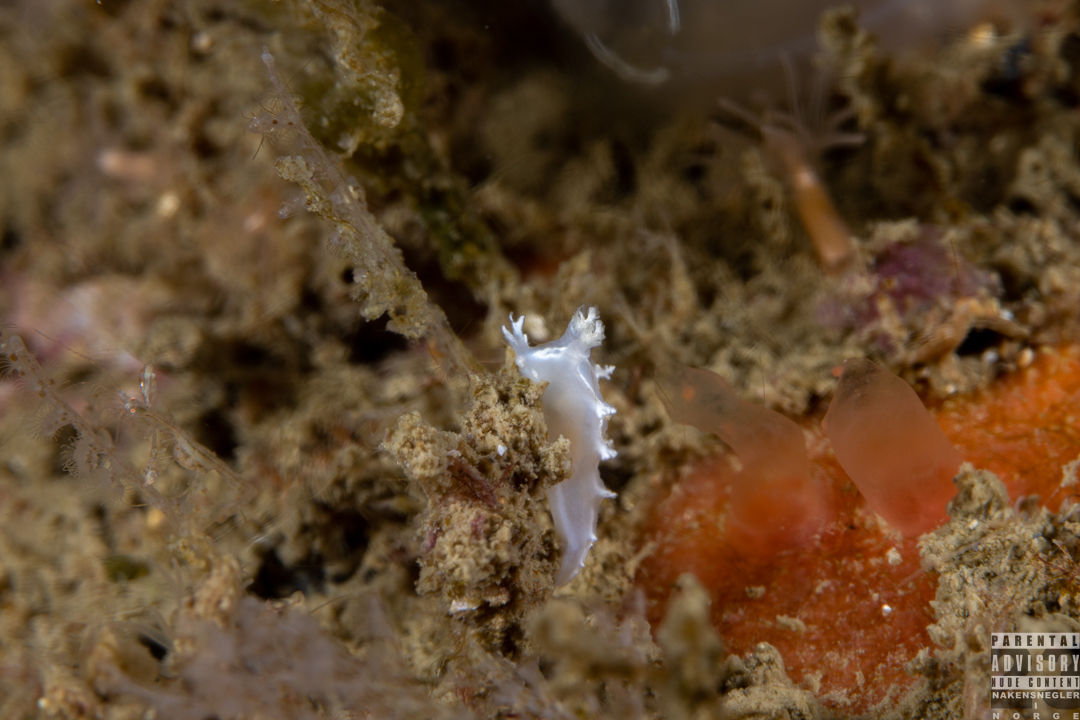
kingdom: Animalia
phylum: Mollusca
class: Gastropoda
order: Nudibranchia
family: Tritoniidae
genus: Duvaucelia
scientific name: Duvaucelia lineata
